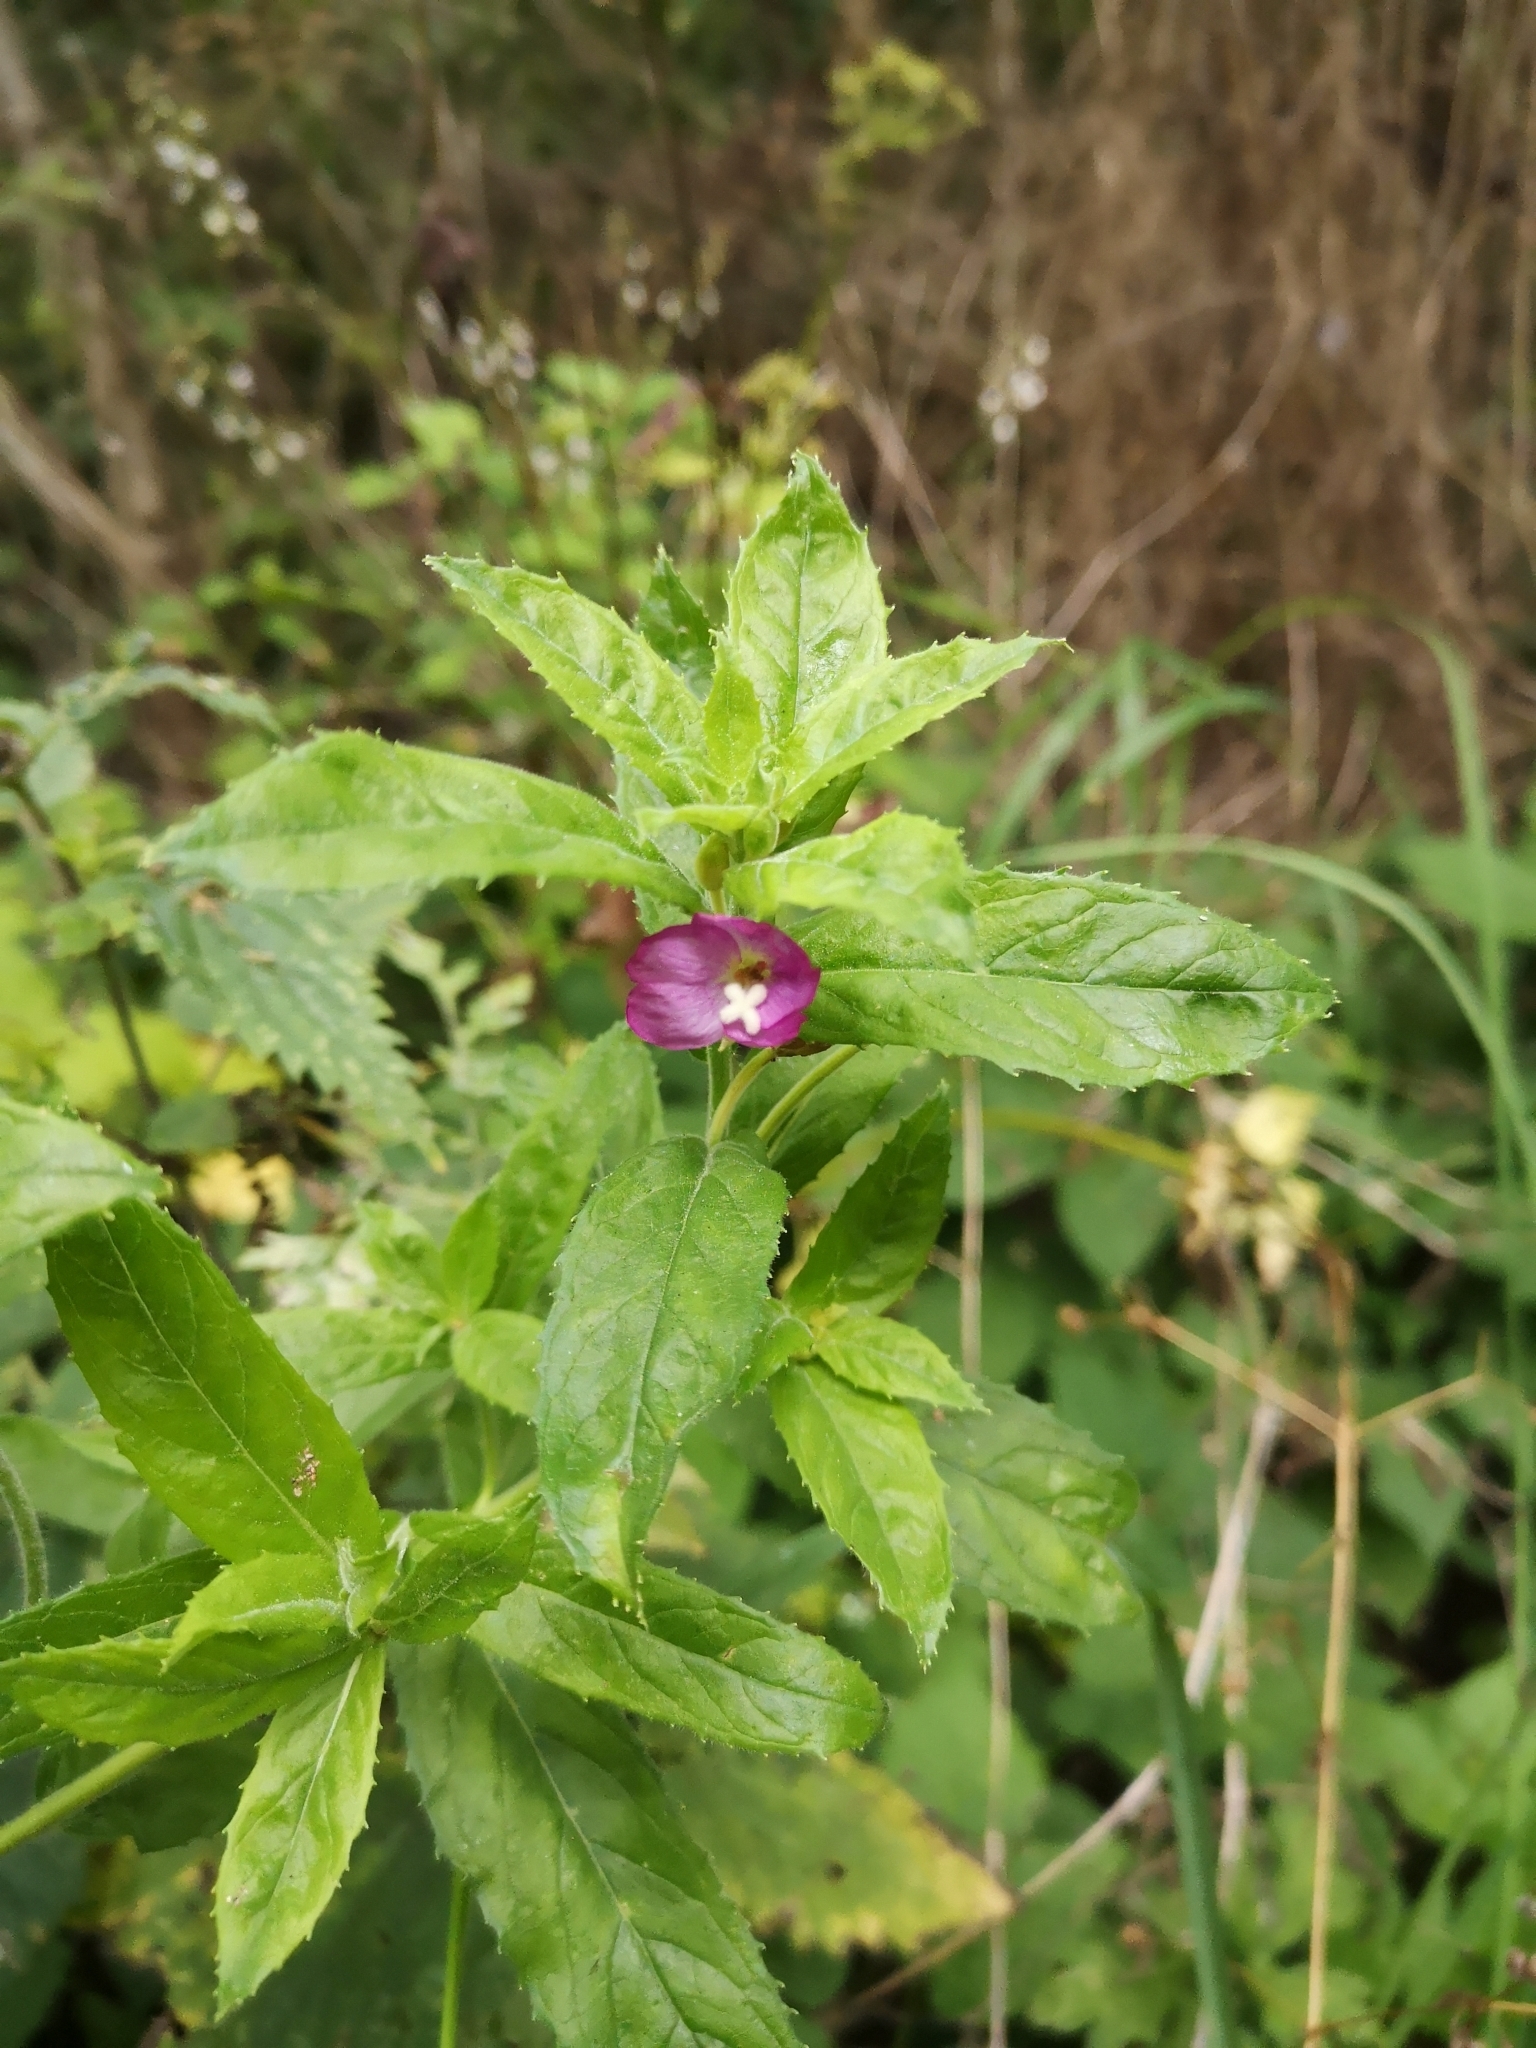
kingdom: Plantae
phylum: Tracheophyta
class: Magnoliopsida
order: Myrtales
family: Onagraceae
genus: Epilobium
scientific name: Epilobium hirsutum
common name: Great willowherb
